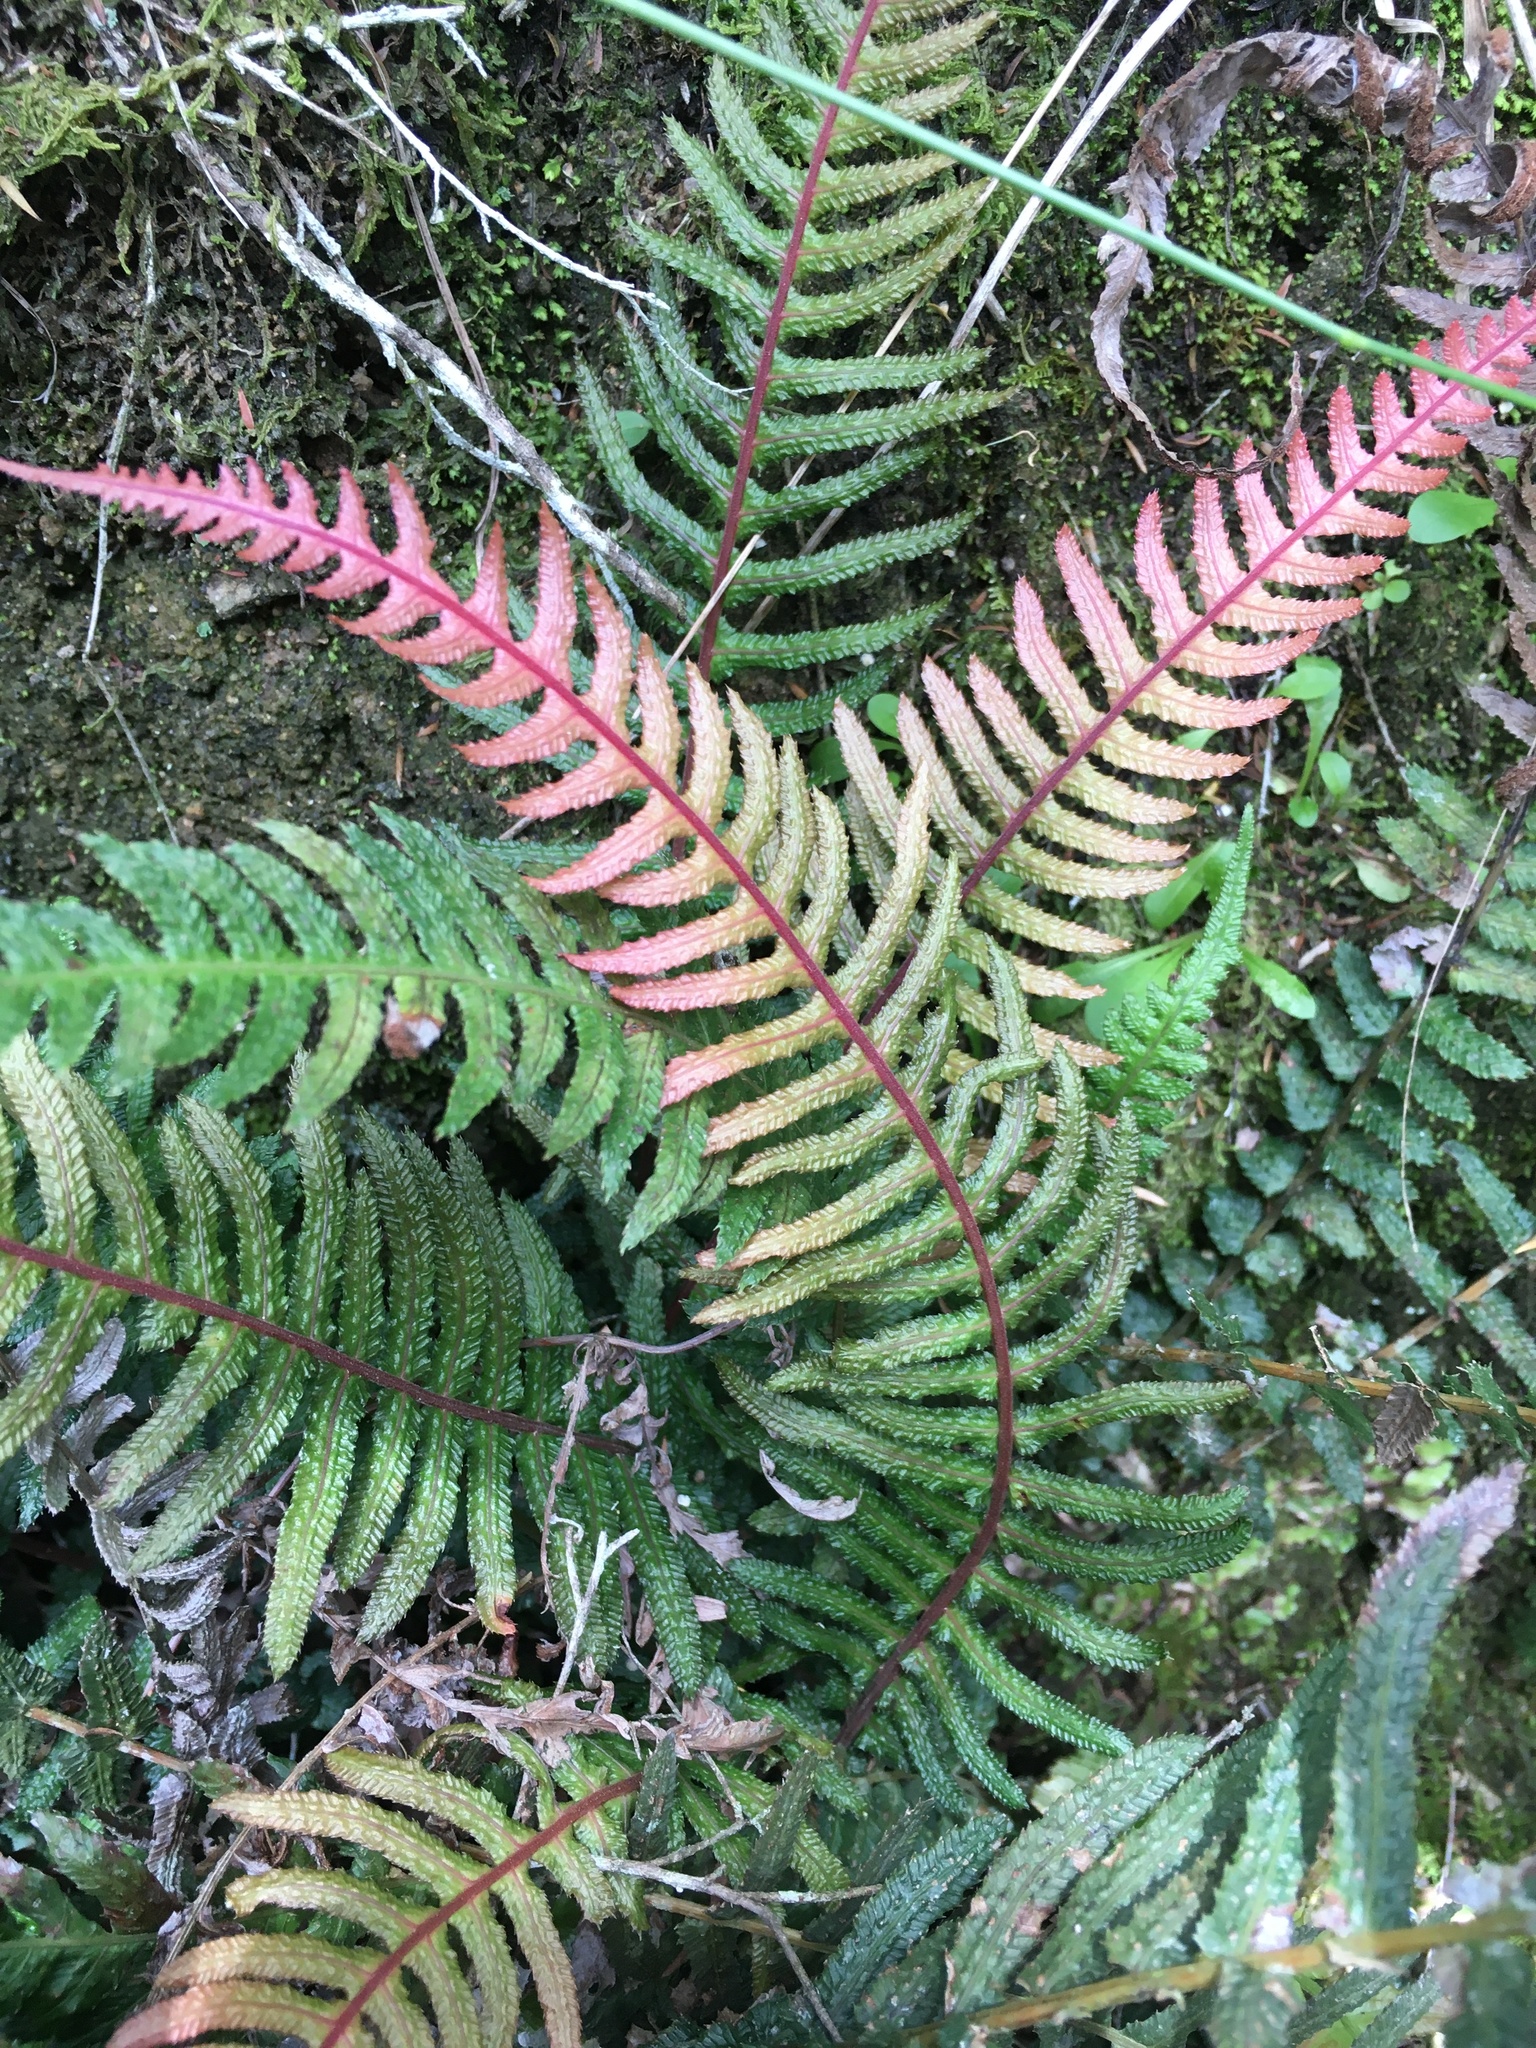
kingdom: Plantae
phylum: Tracheophyta
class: Polypodiopsida
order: Polypodiales
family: Blechnaceae
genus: Doodia
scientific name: Doodia australis
